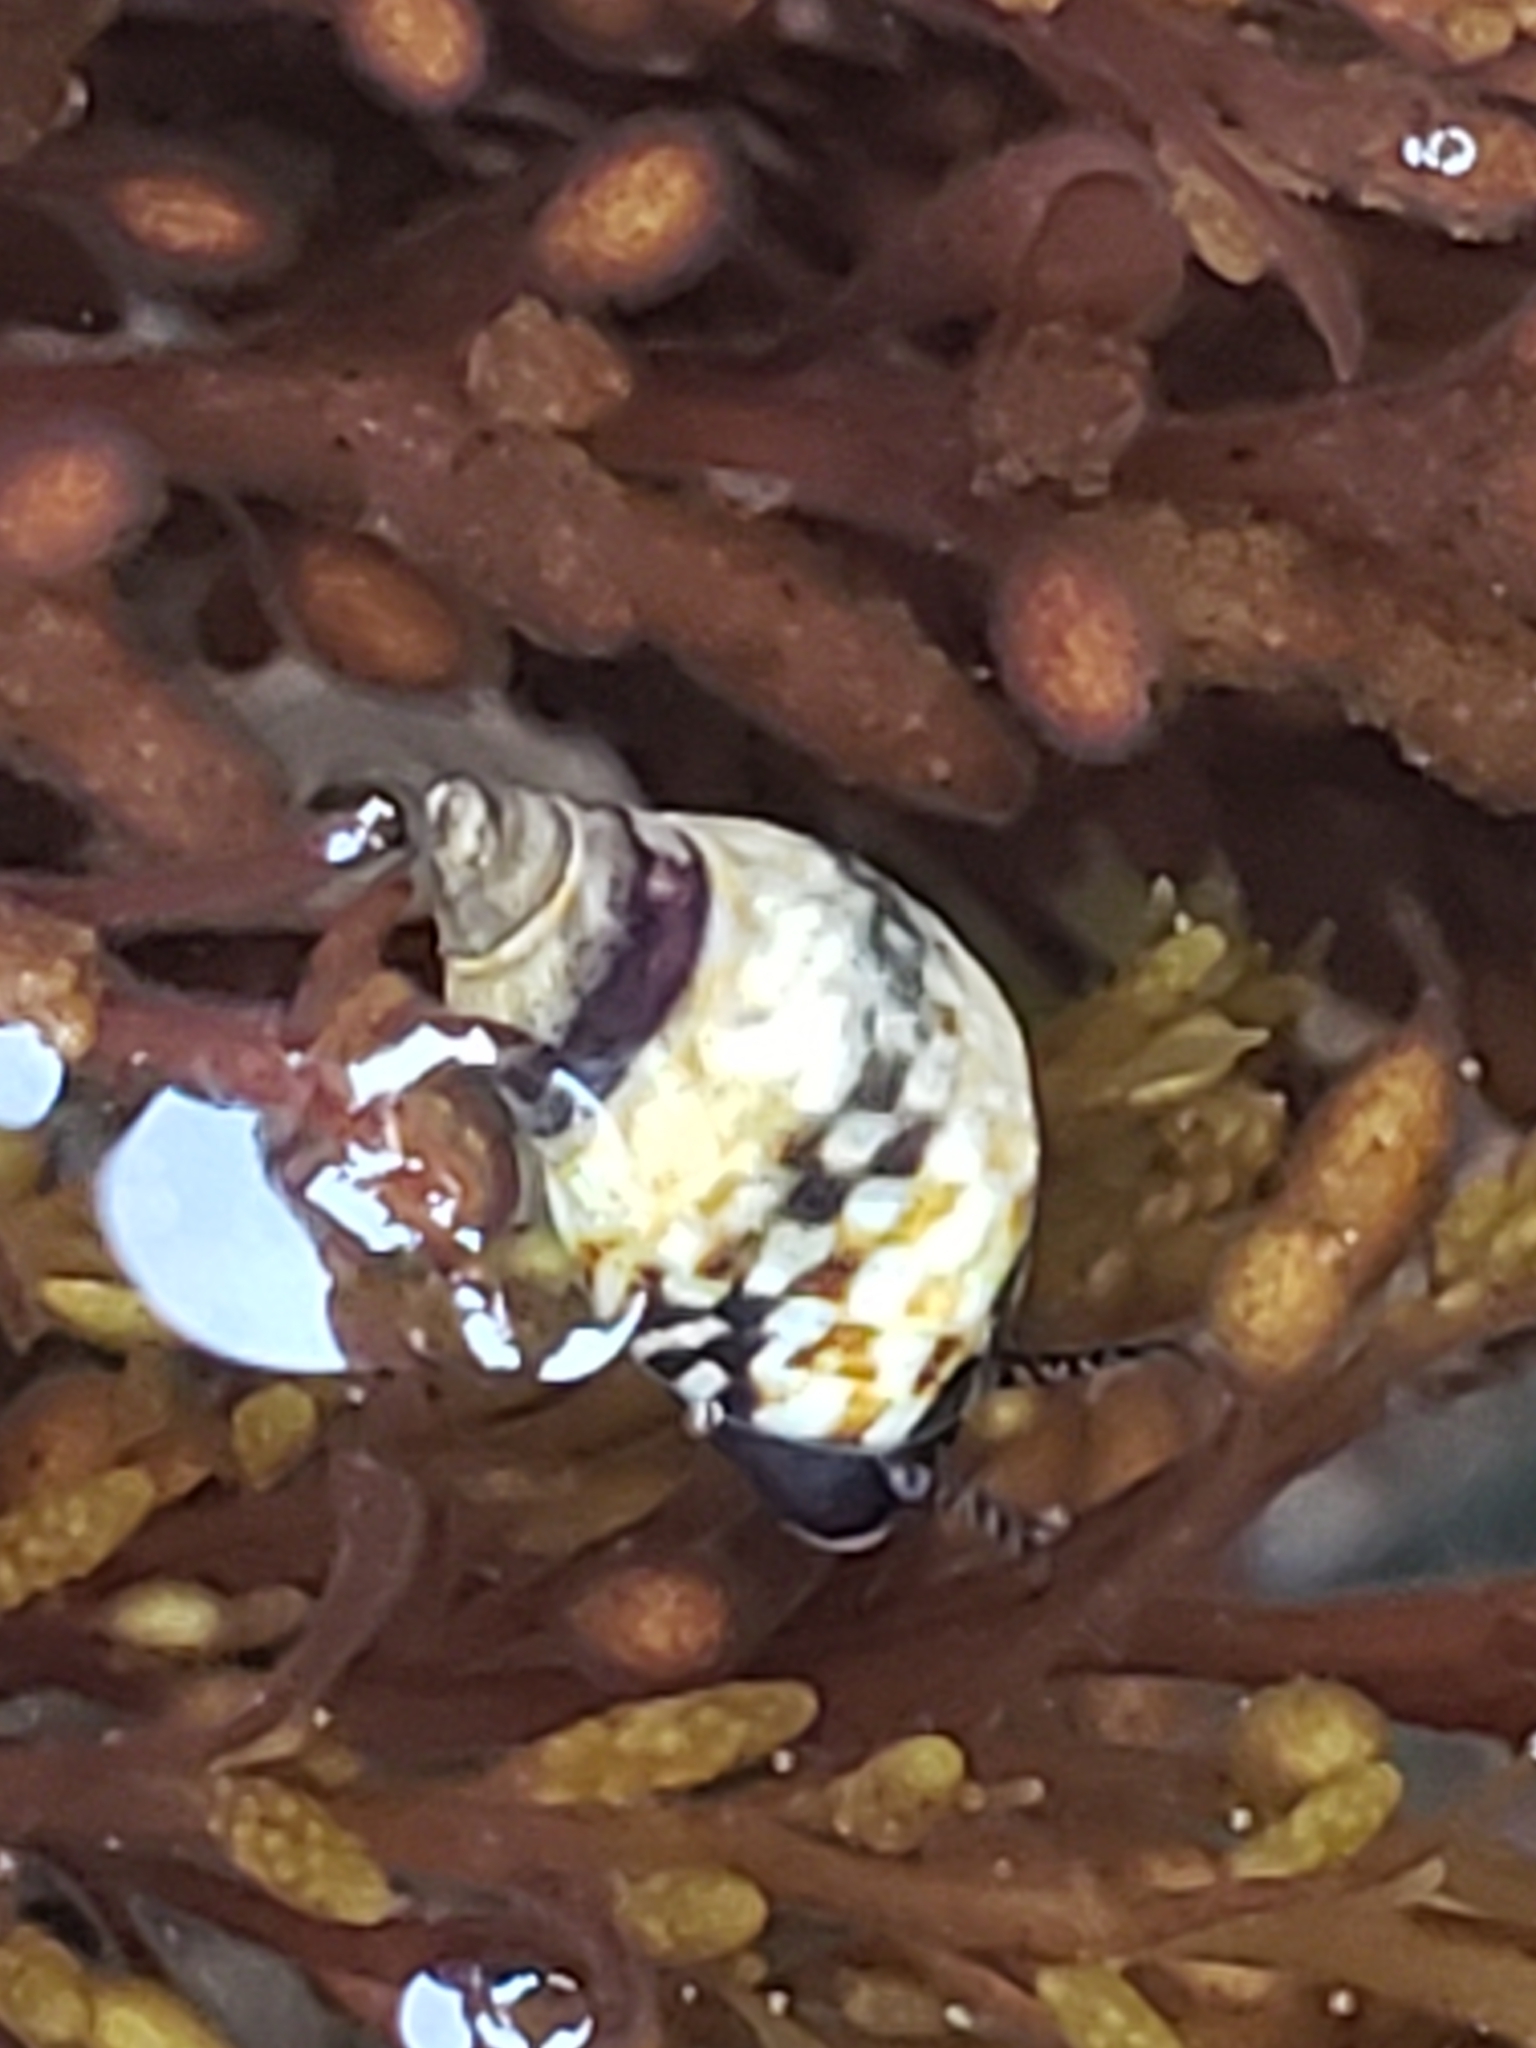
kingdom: Animalia
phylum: Mollusca
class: Gastropoda
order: Littorinimorpha
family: Littorinidae
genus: Littorina
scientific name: Littorina scutulata
